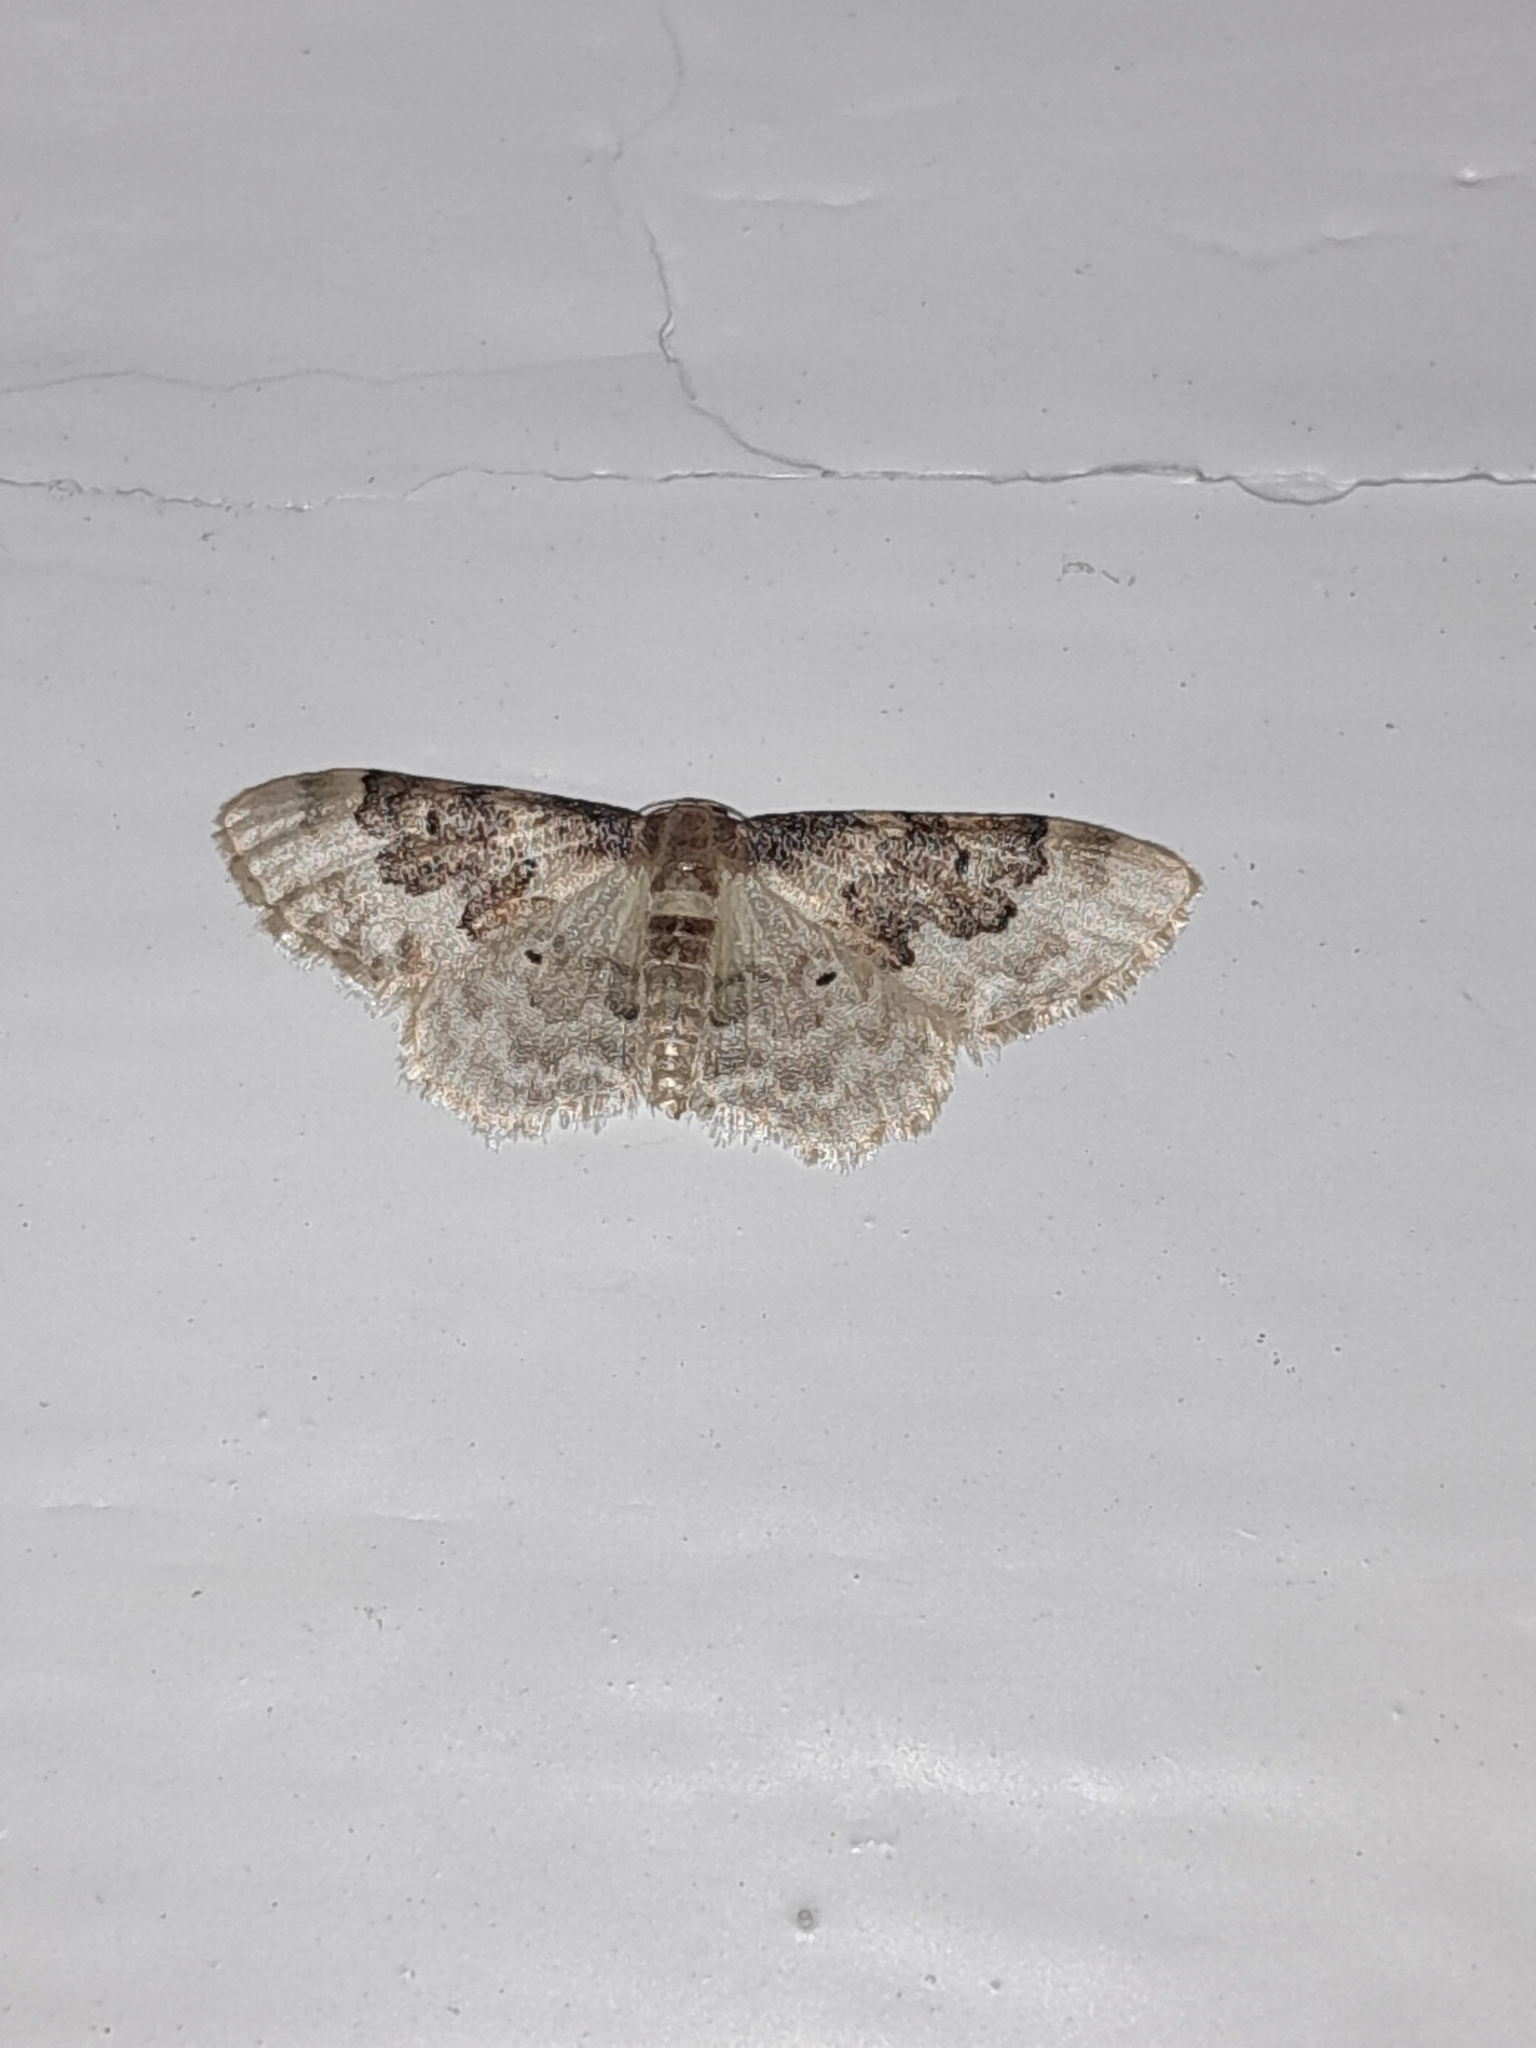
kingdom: Animalia
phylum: Arthropoda
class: Insecta
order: Lepidoptera
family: Geometridae
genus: Idaea
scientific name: Idaea rusticata
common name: Least carpet
